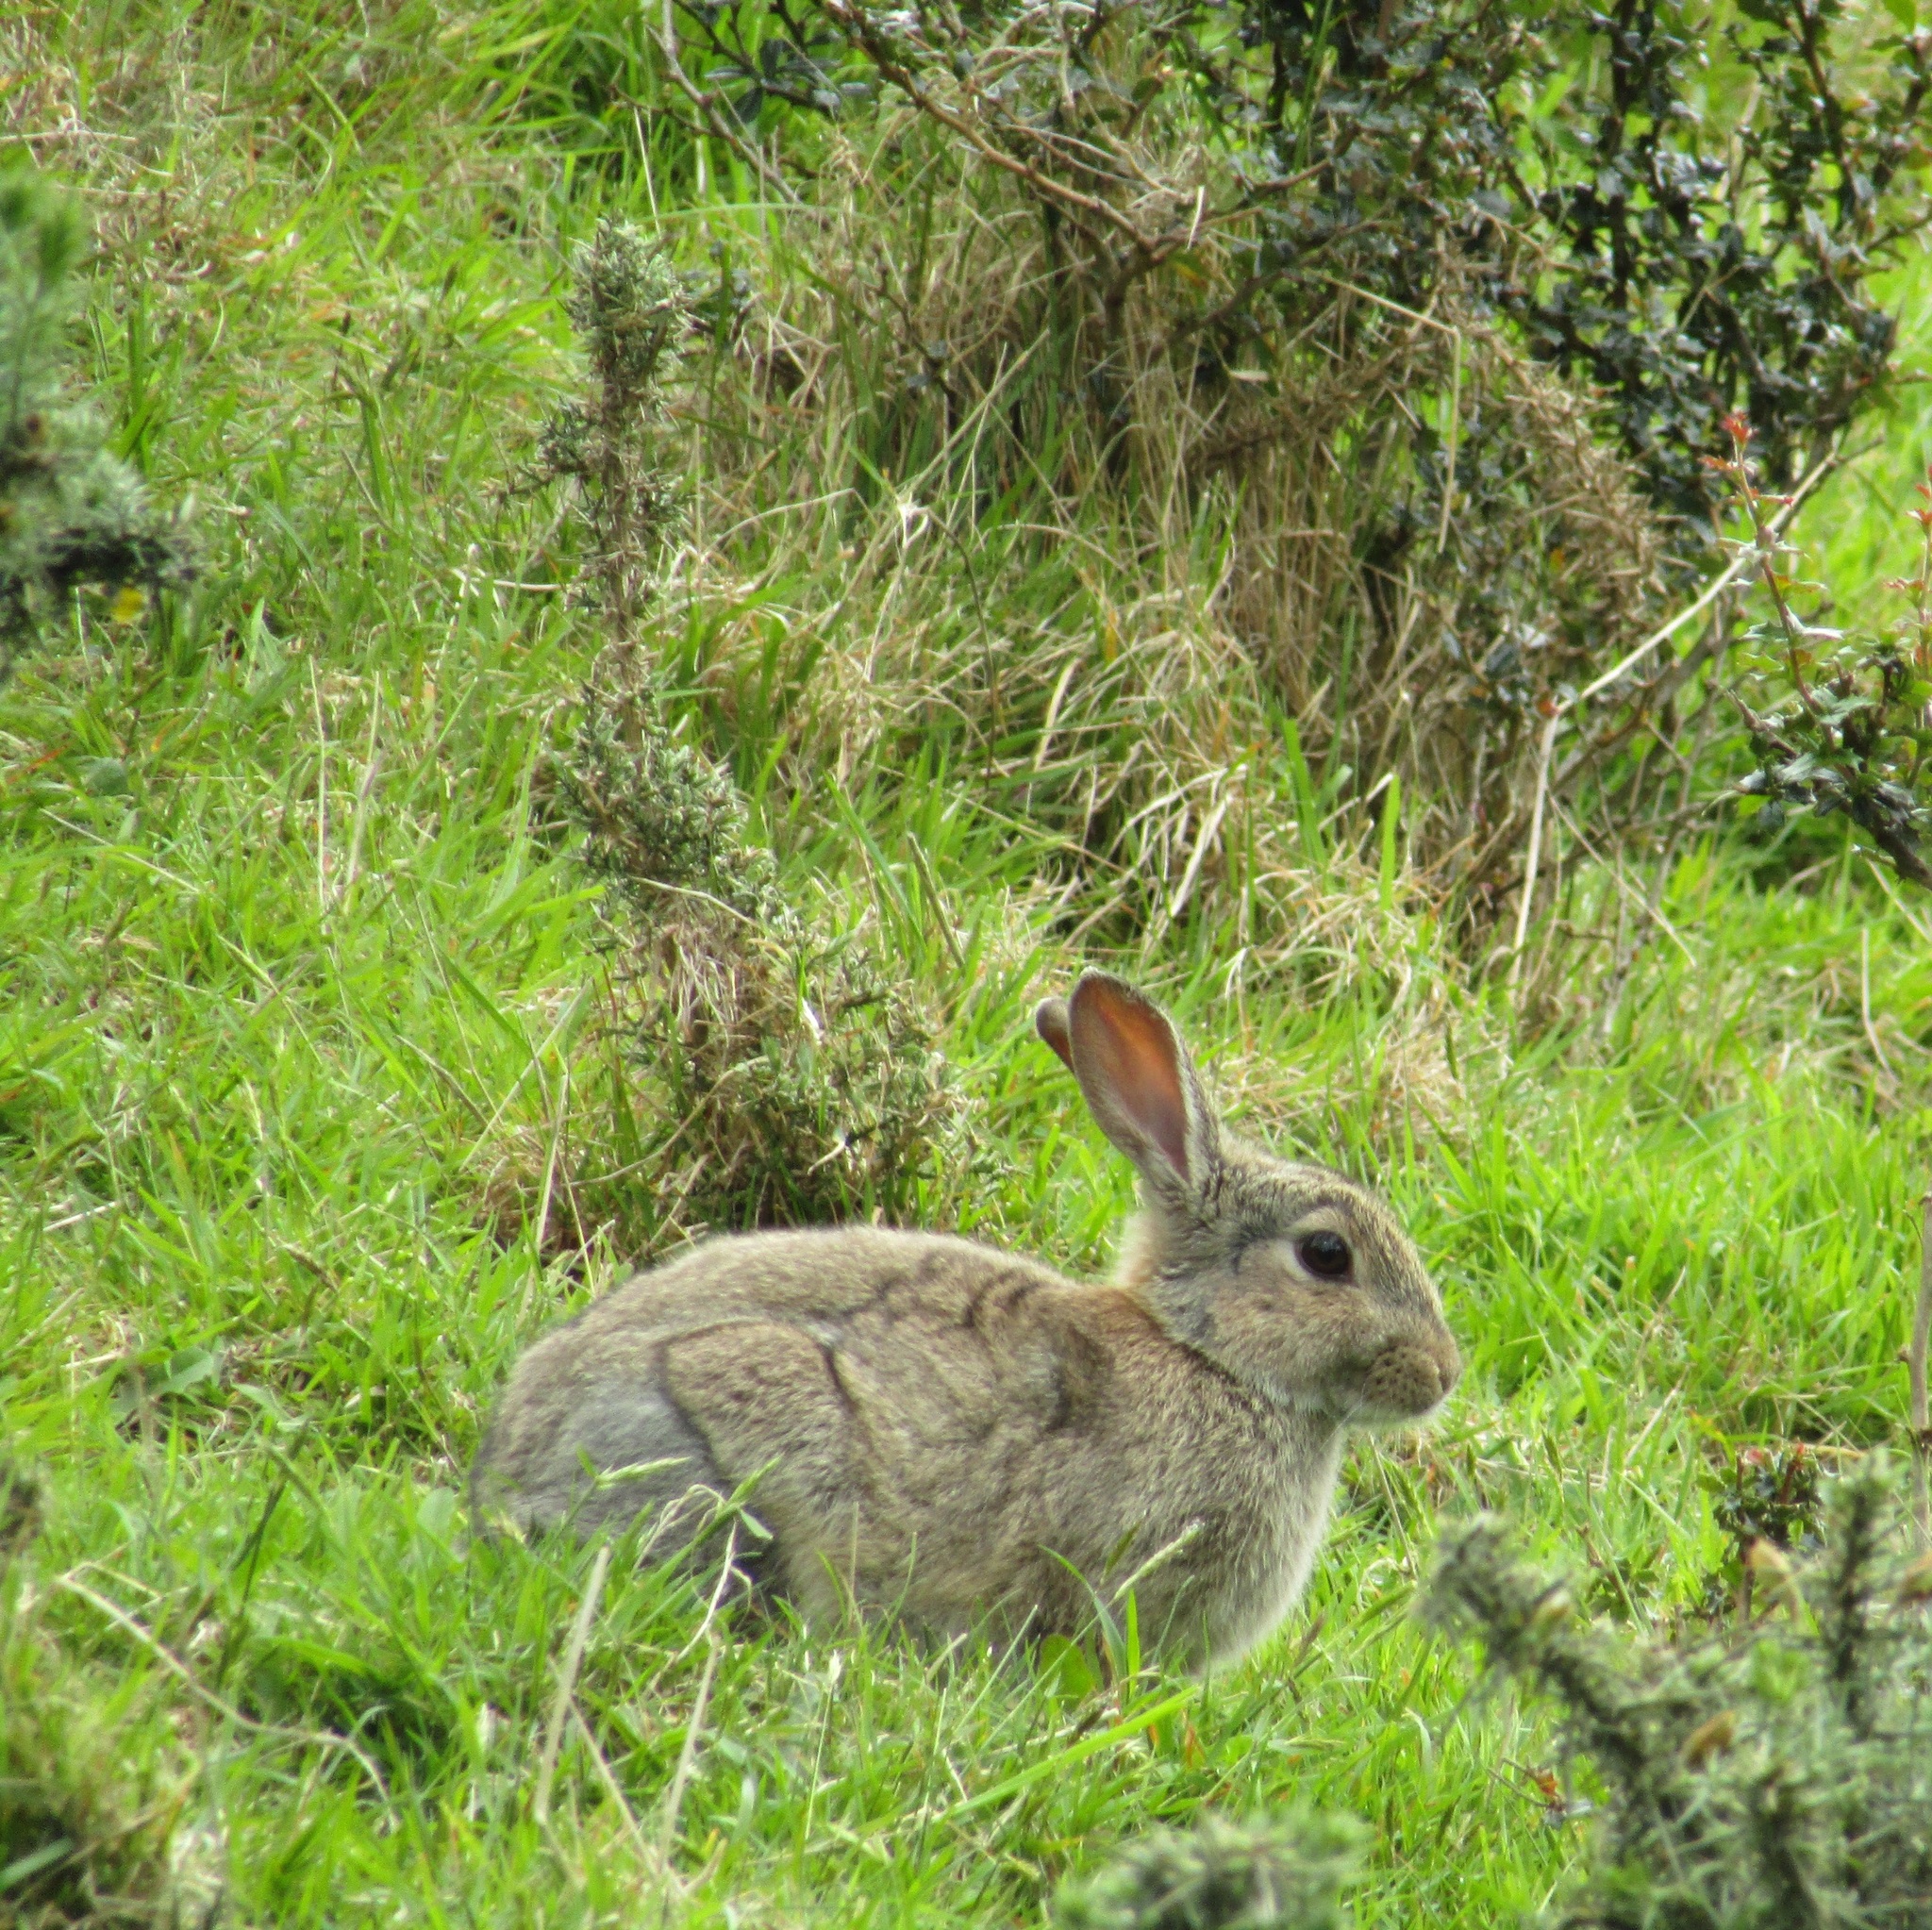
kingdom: Animalia
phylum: Chordata
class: Mammalia
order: Lagomorpha
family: Leporidae
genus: Oryctolagus
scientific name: Oryctolagus cuniculus
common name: European rabbit
